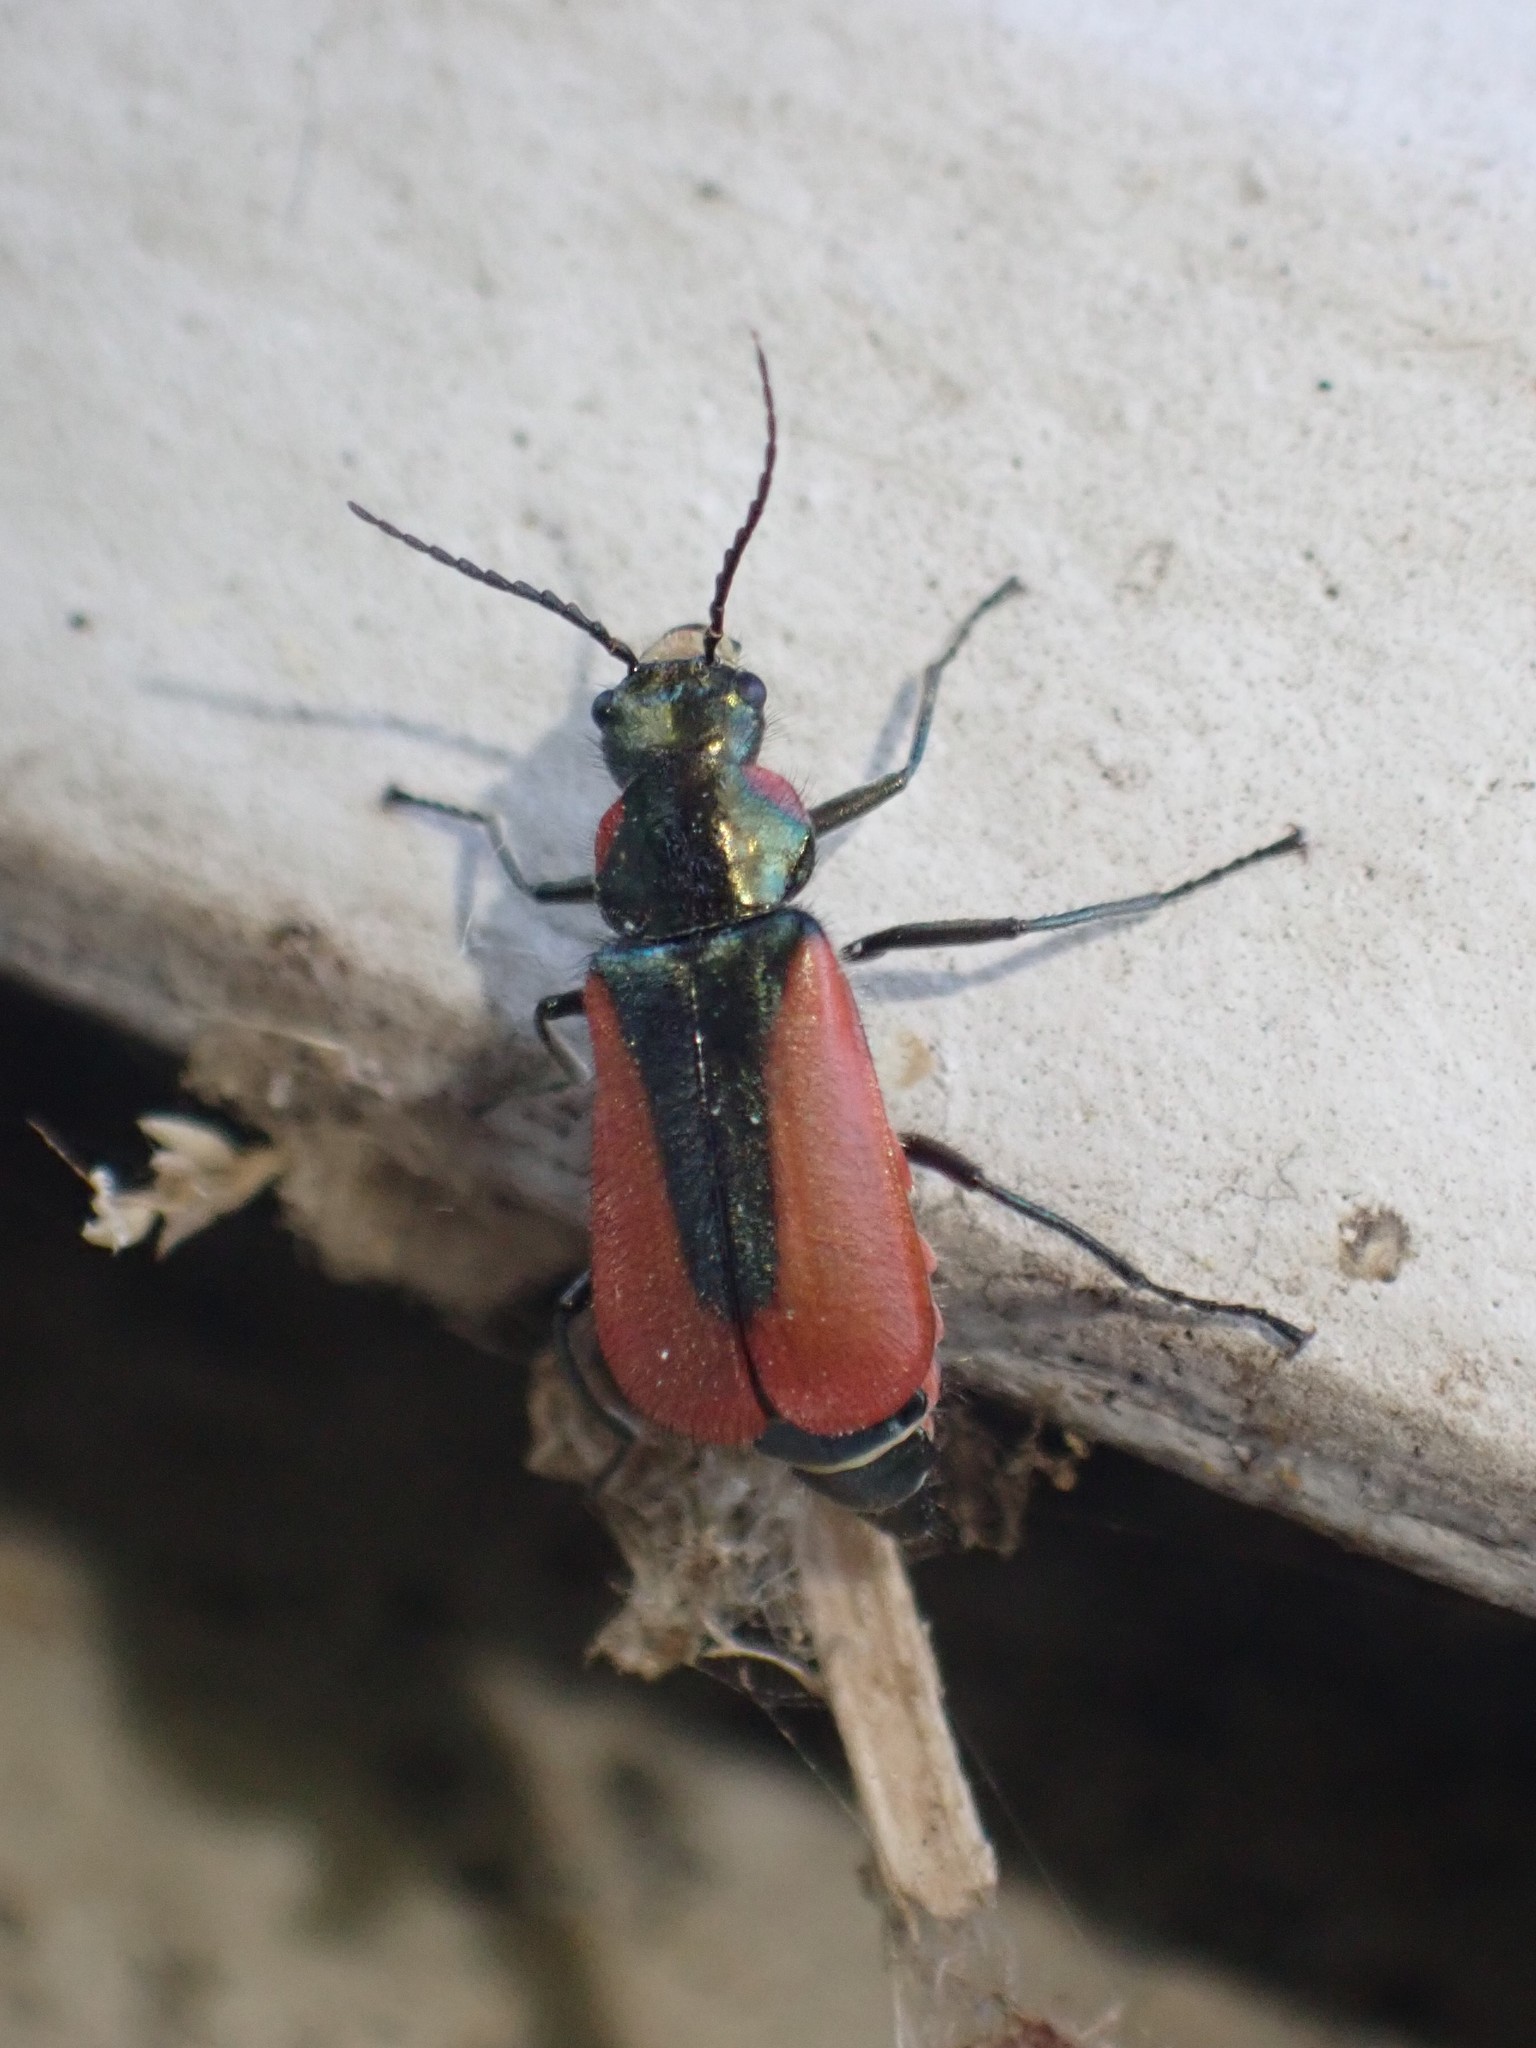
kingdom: Animalia
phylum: Arthropoda
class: Insecta
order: Coleoptera
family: Melyridae
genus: Malachius
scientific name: Malachius aeneus
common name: Scarlet malachite beetle
